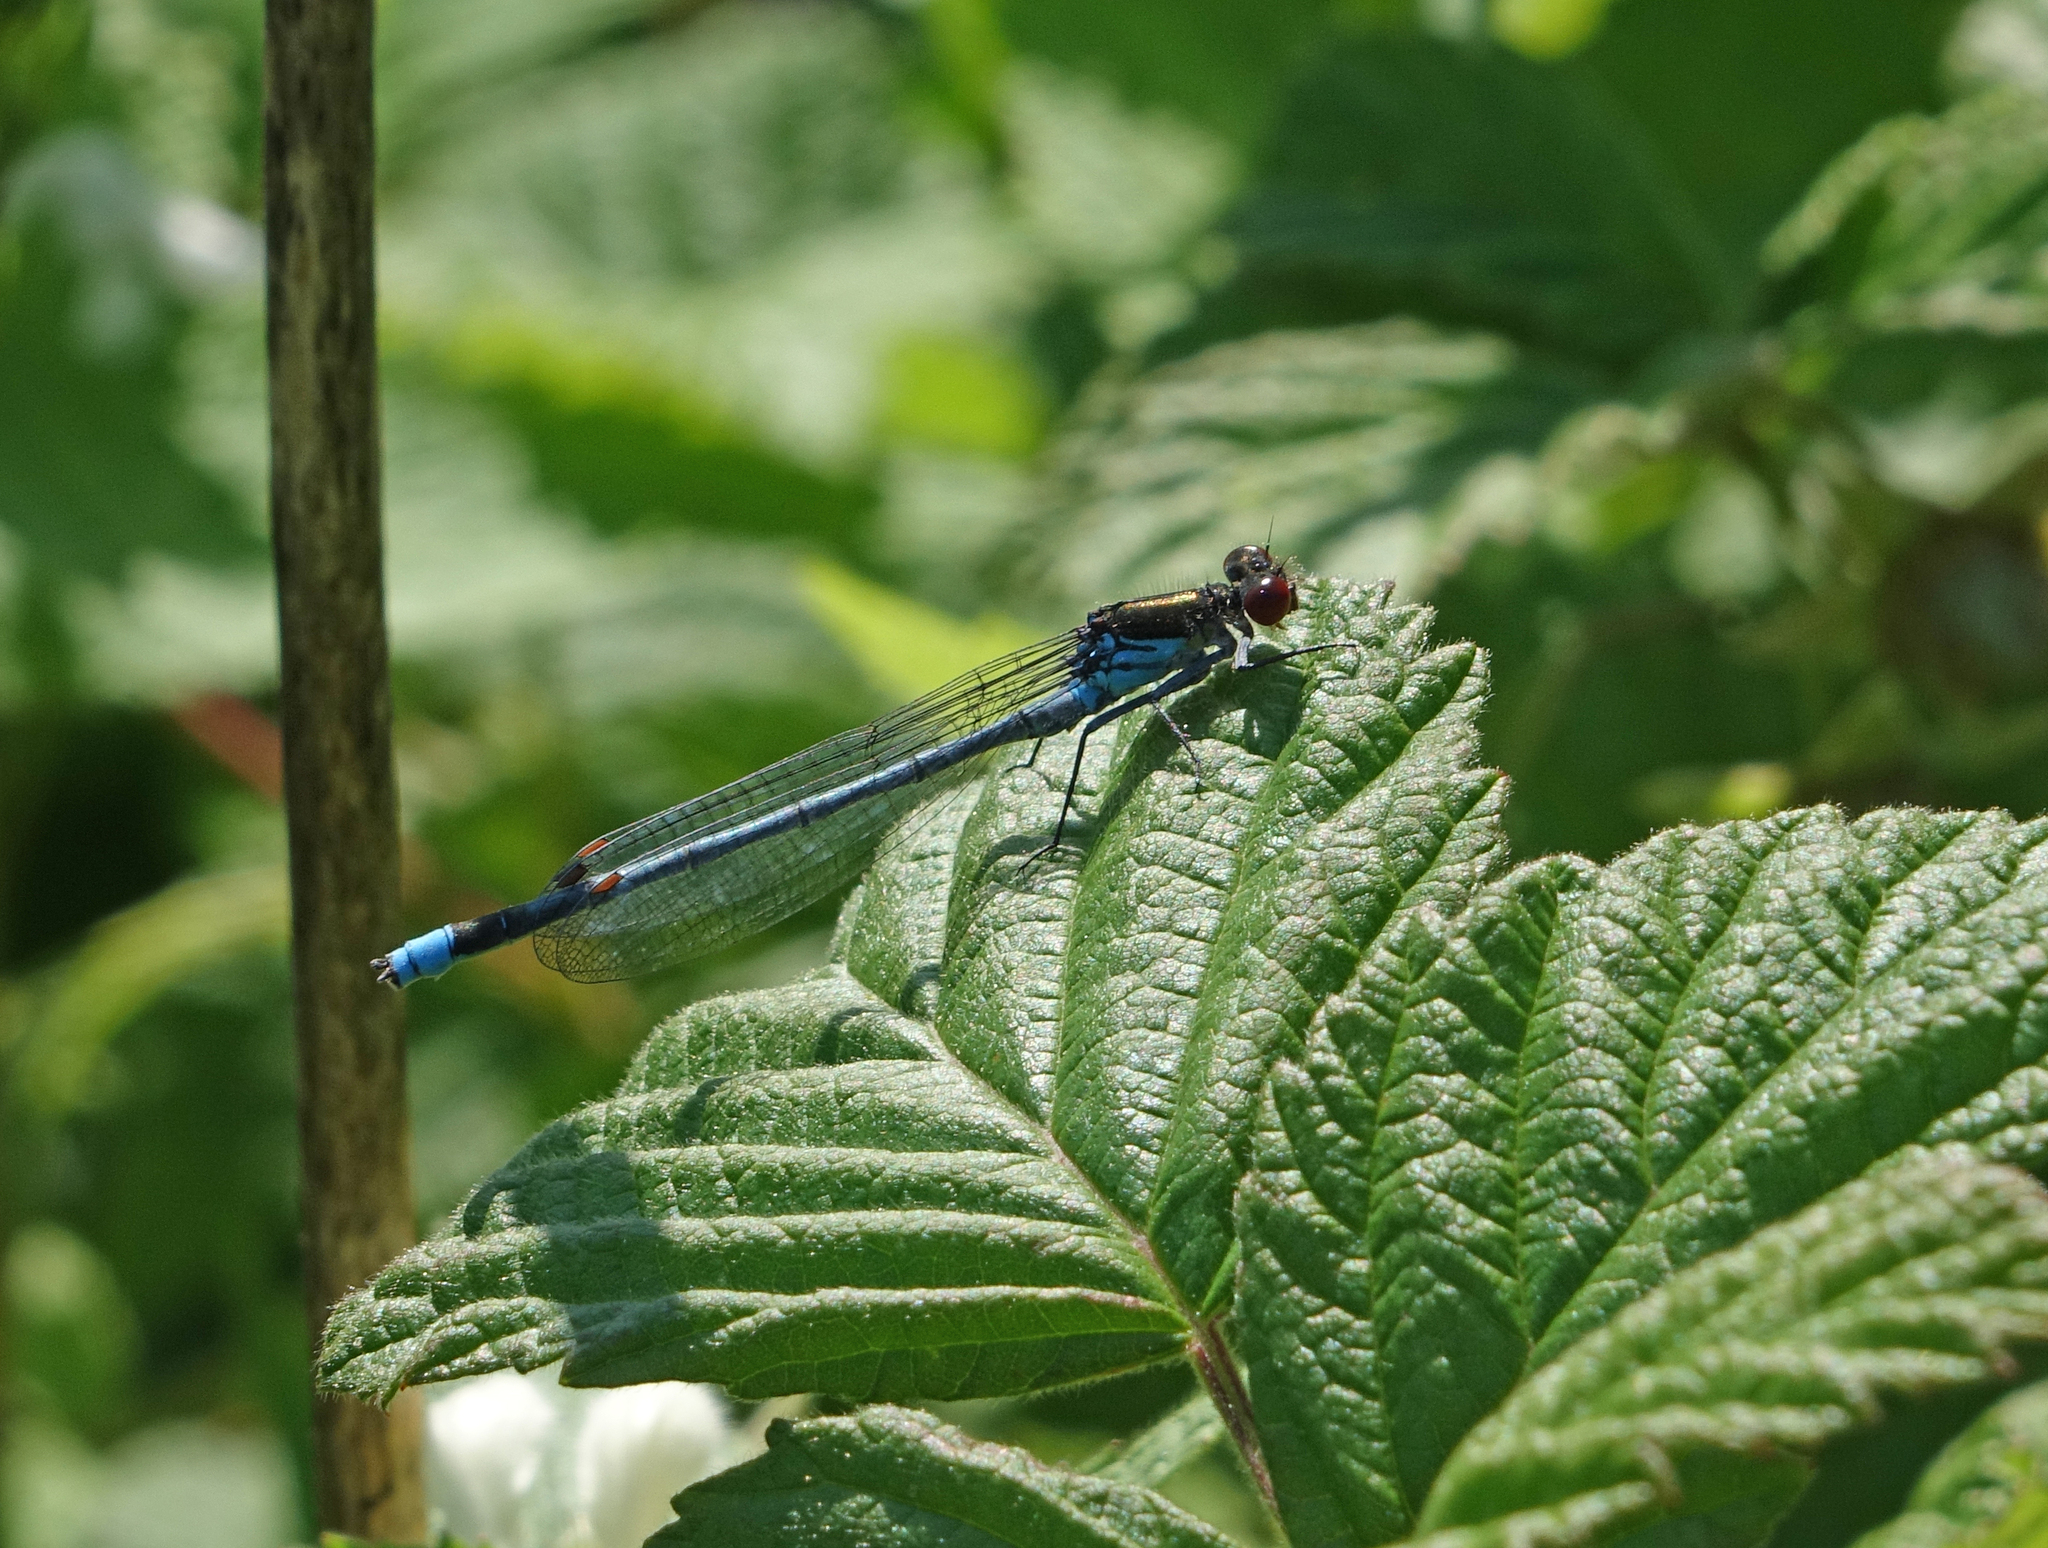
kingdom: Animalia
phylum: Arthropoda
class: Insecta
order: Odonata
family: Coenagrionidae
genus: Erythromma
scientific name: Erythromma najas
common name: Red-eyed damselfly
